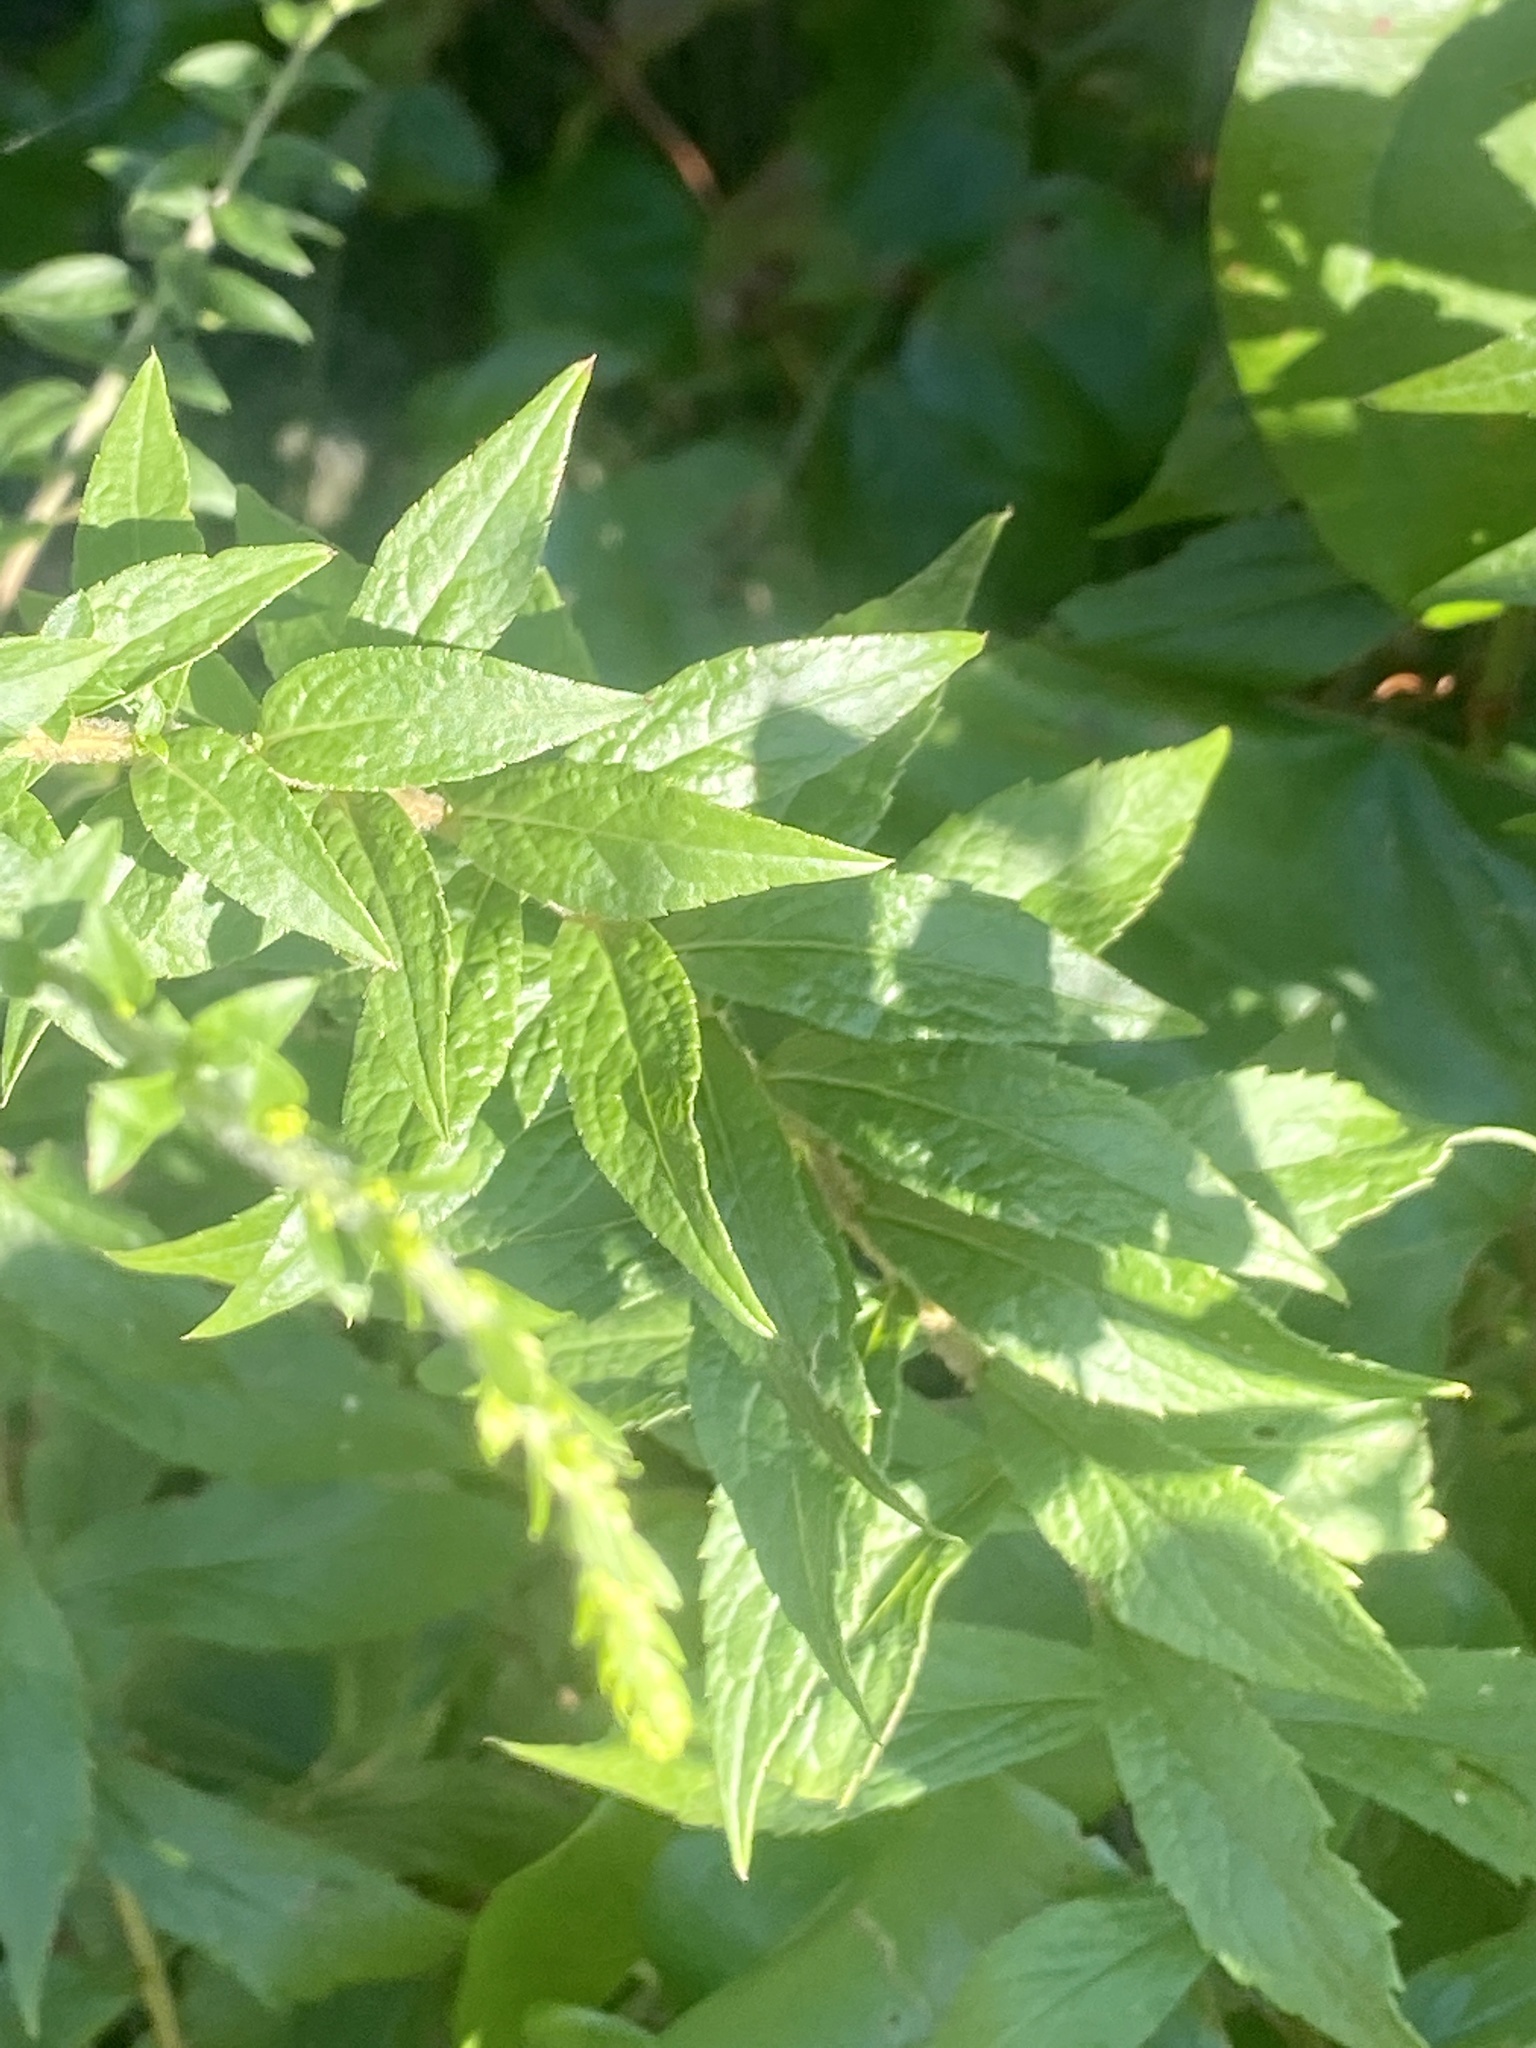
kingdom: Plantae
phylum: Tracheophyta
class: Magnoliopsida
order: Asterales
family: Asteraceae
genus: Solidago
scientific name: Solidago rugosa
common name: Rough-stemmed goldenrod
